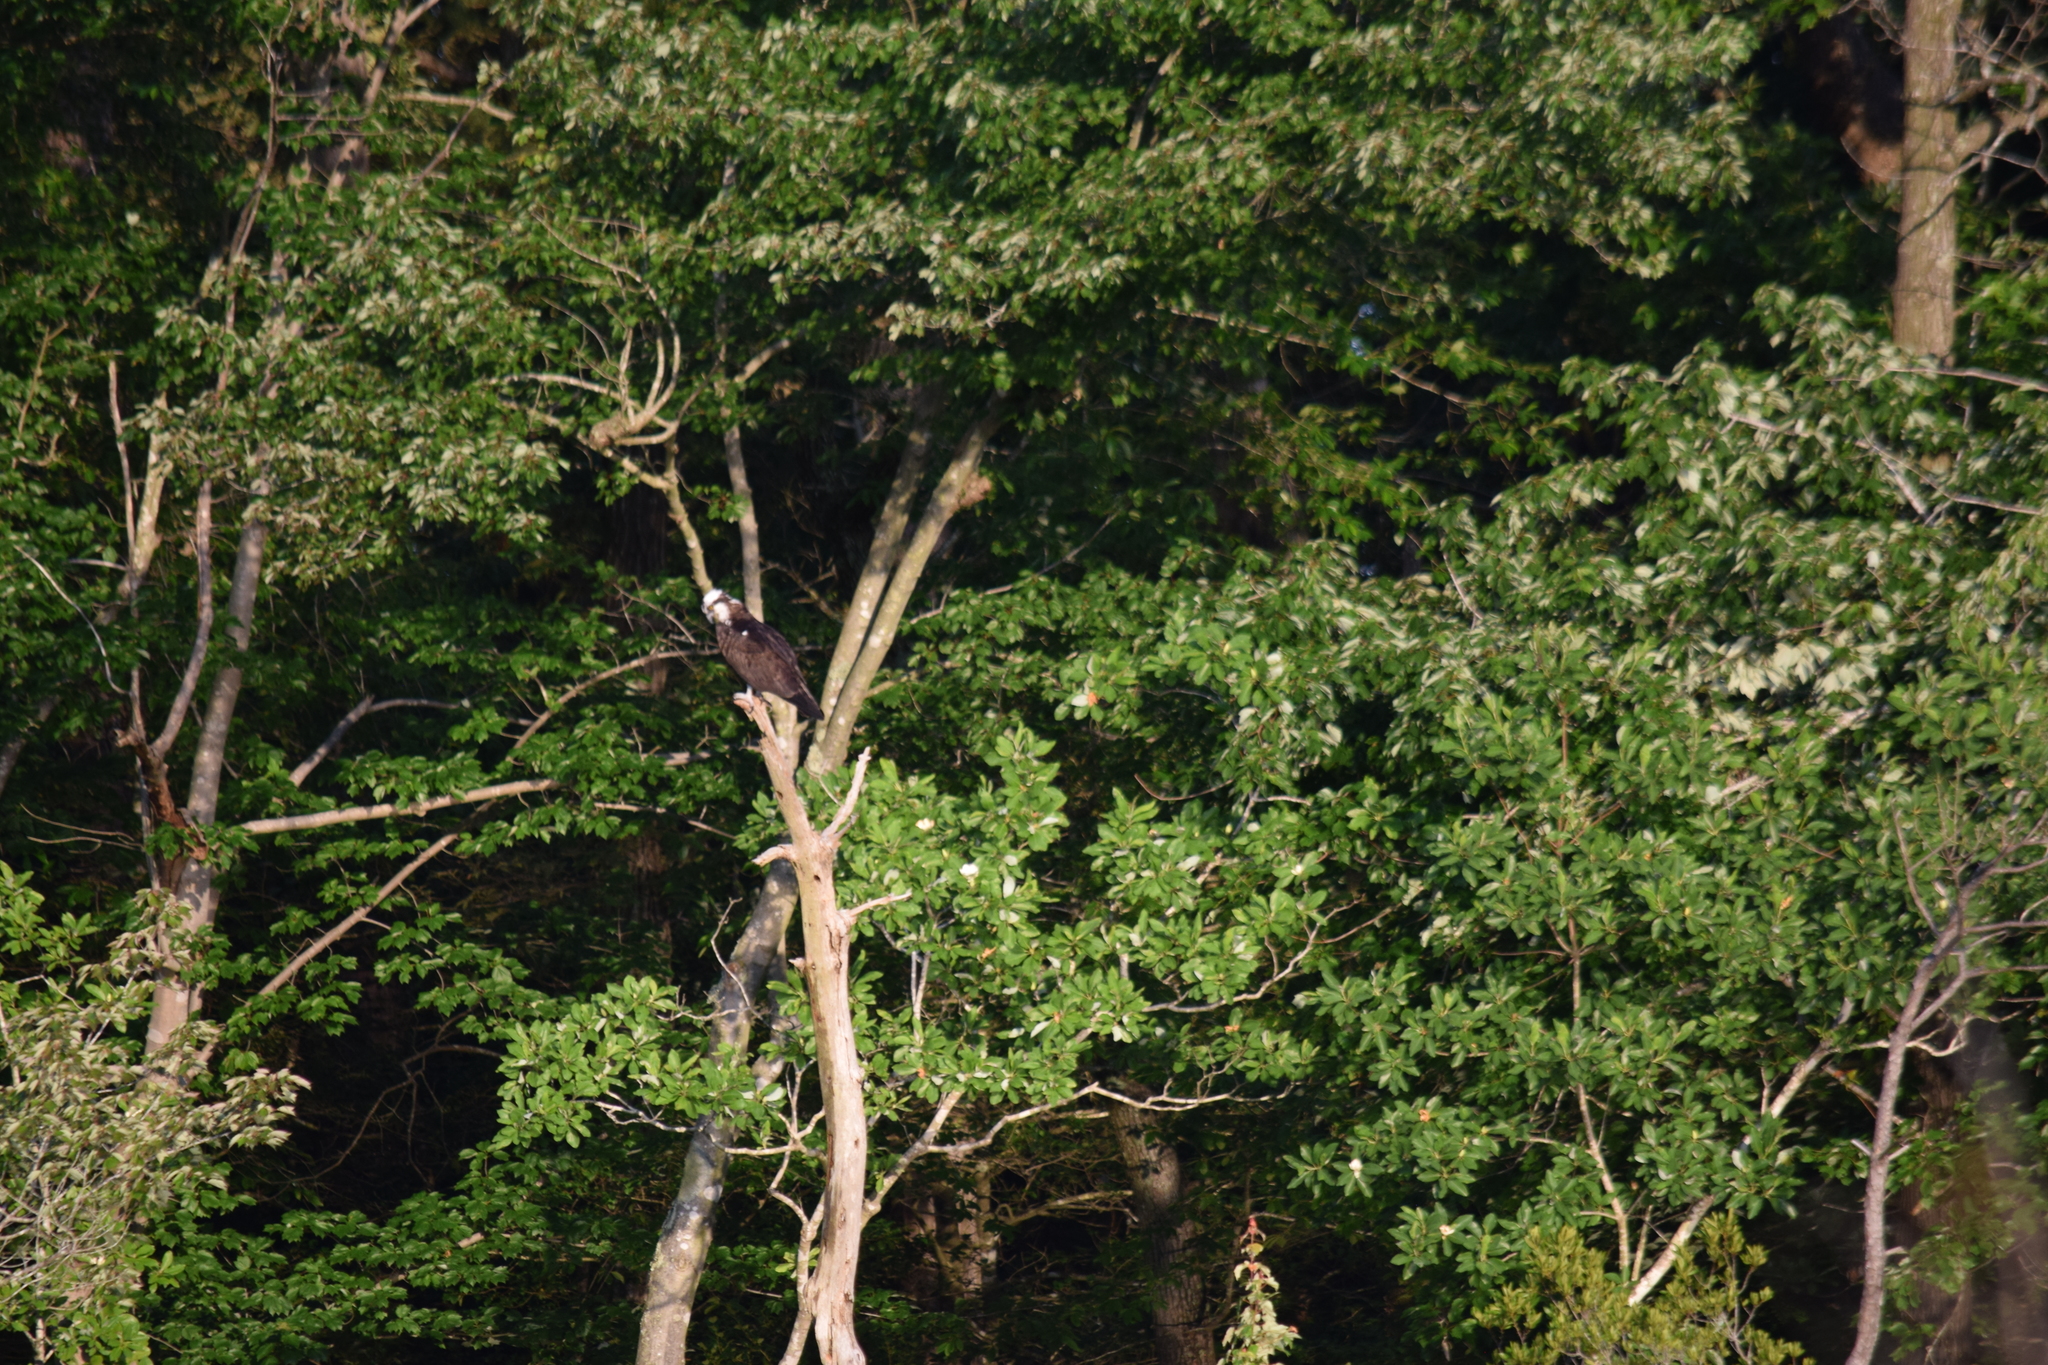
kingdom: Animalia
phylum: Chordata
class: Aves
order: Accipitriformes
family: Pandionidae
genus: Pandion
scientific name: Pandion haliaetus
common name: Osprey
